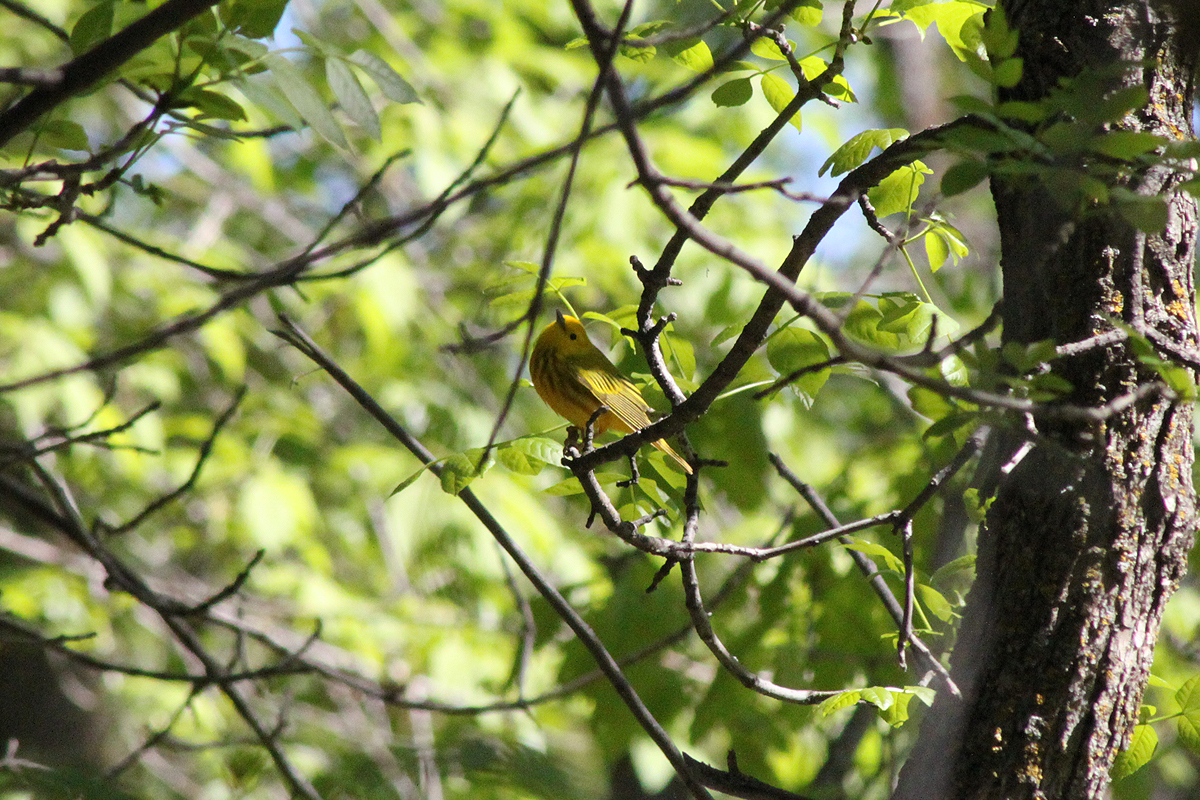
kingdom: Animalia
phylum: Chordata
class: Aves
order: Passeriformes
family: Parulidae
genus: Setophaga
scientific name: Setophaga petechia
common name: Yellow warbler
